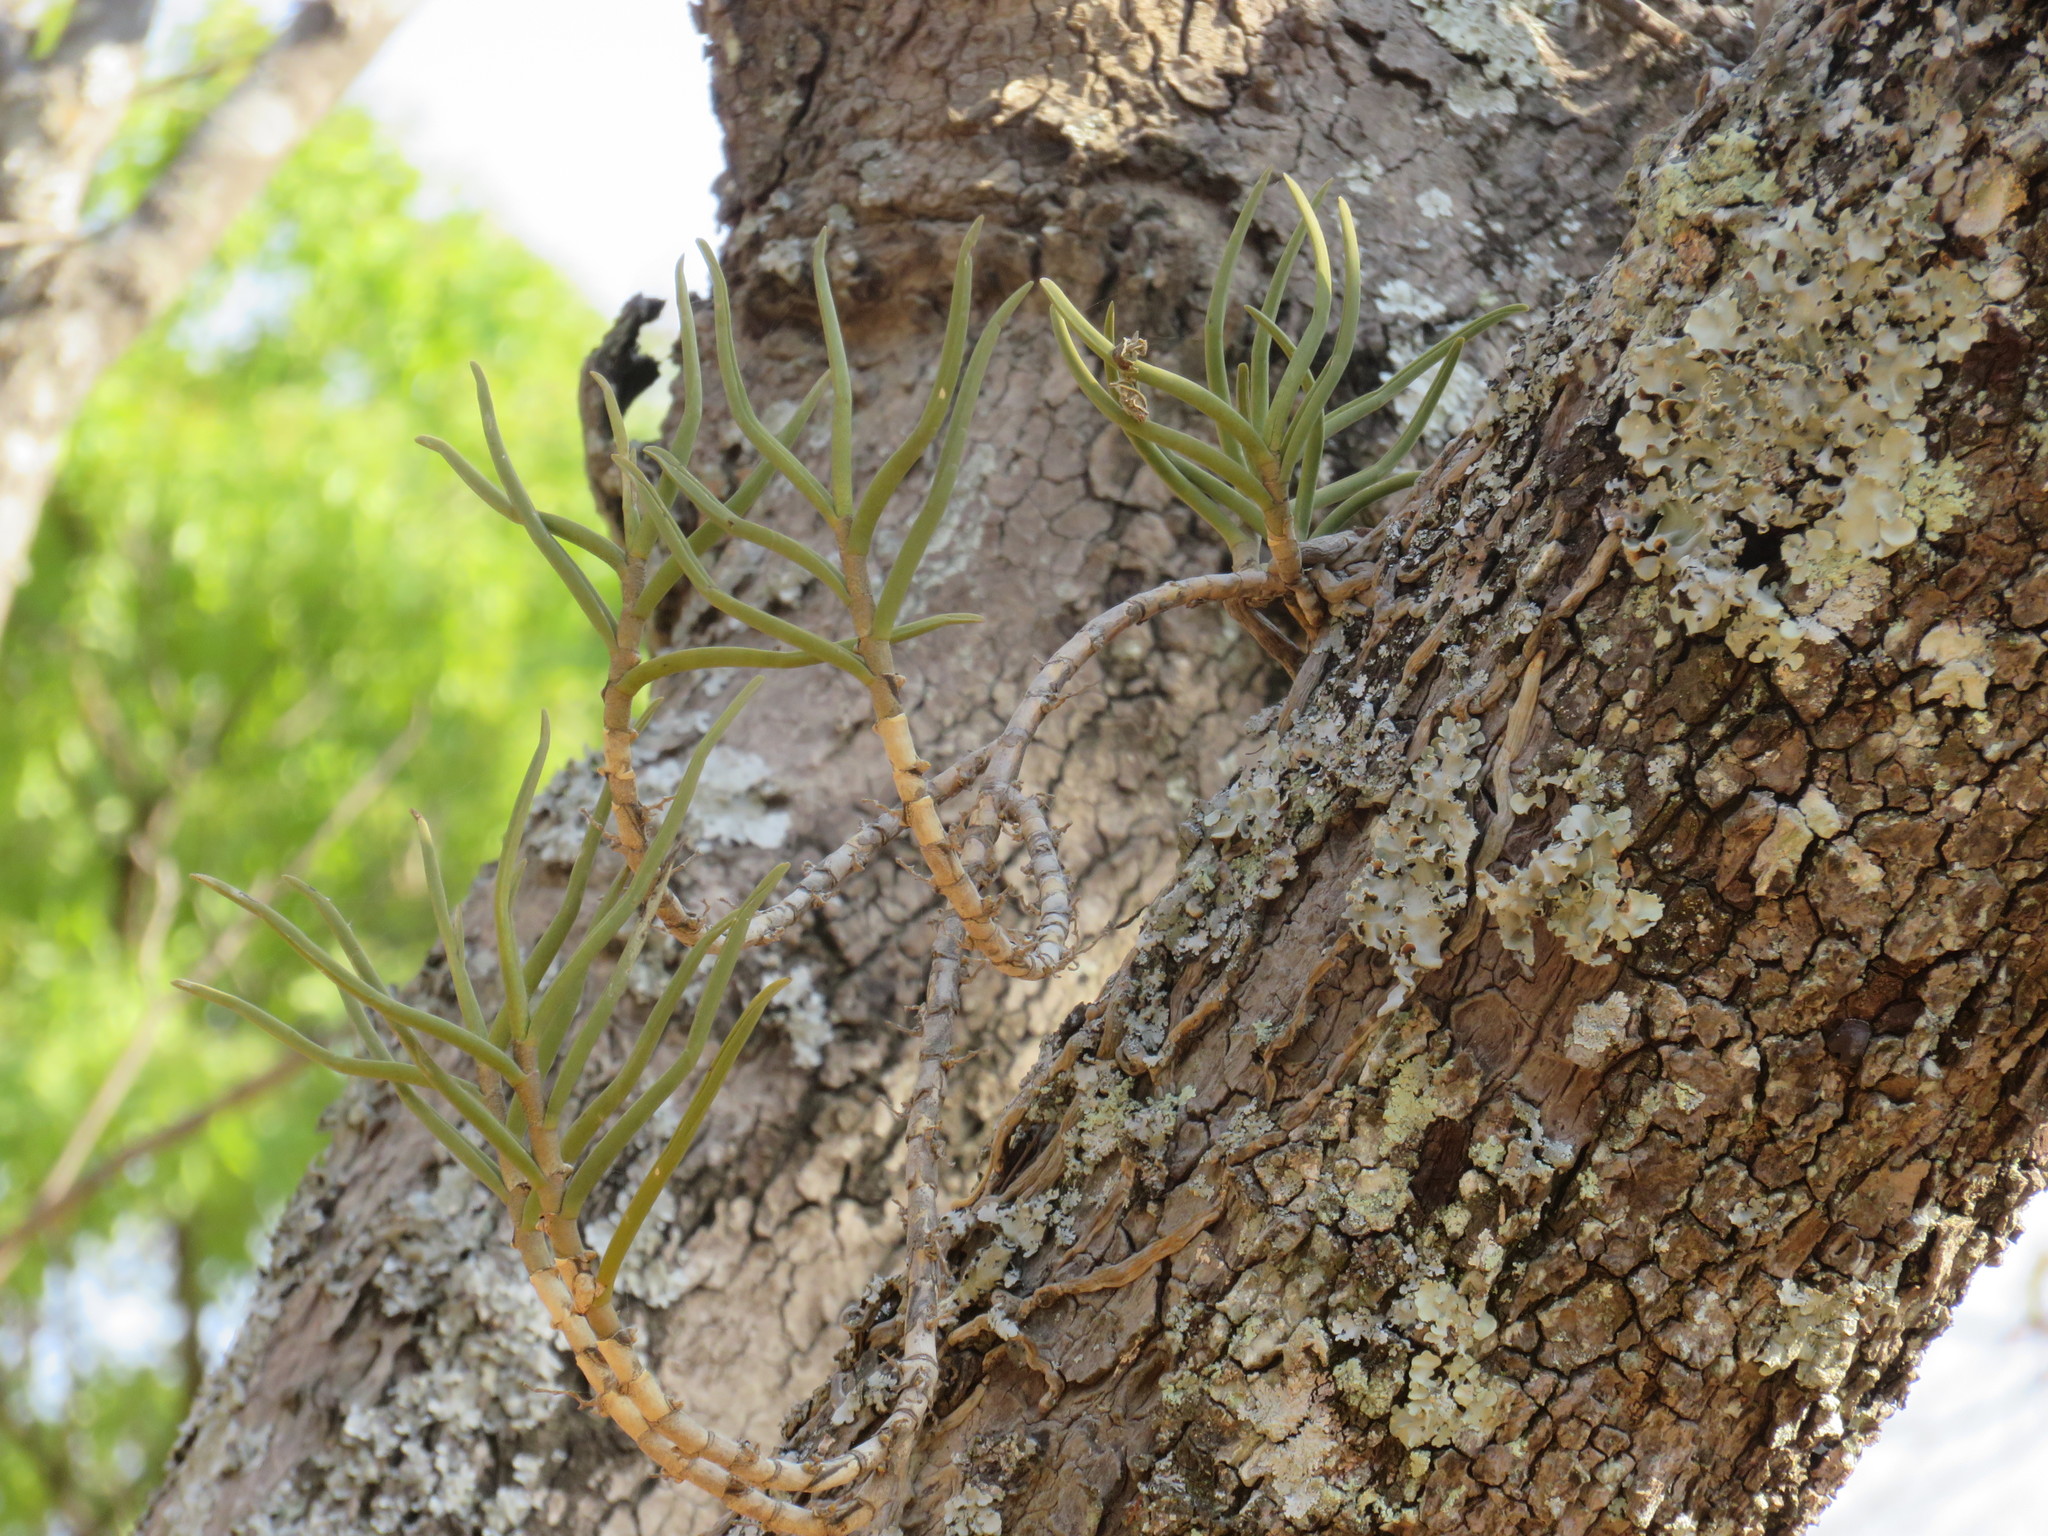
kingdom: Plantae
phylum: Tracheophyta
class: Liliopsida
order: Asparagales
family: Orchidaceae
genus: Tridactyle
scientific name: Tridactyle tridentata
